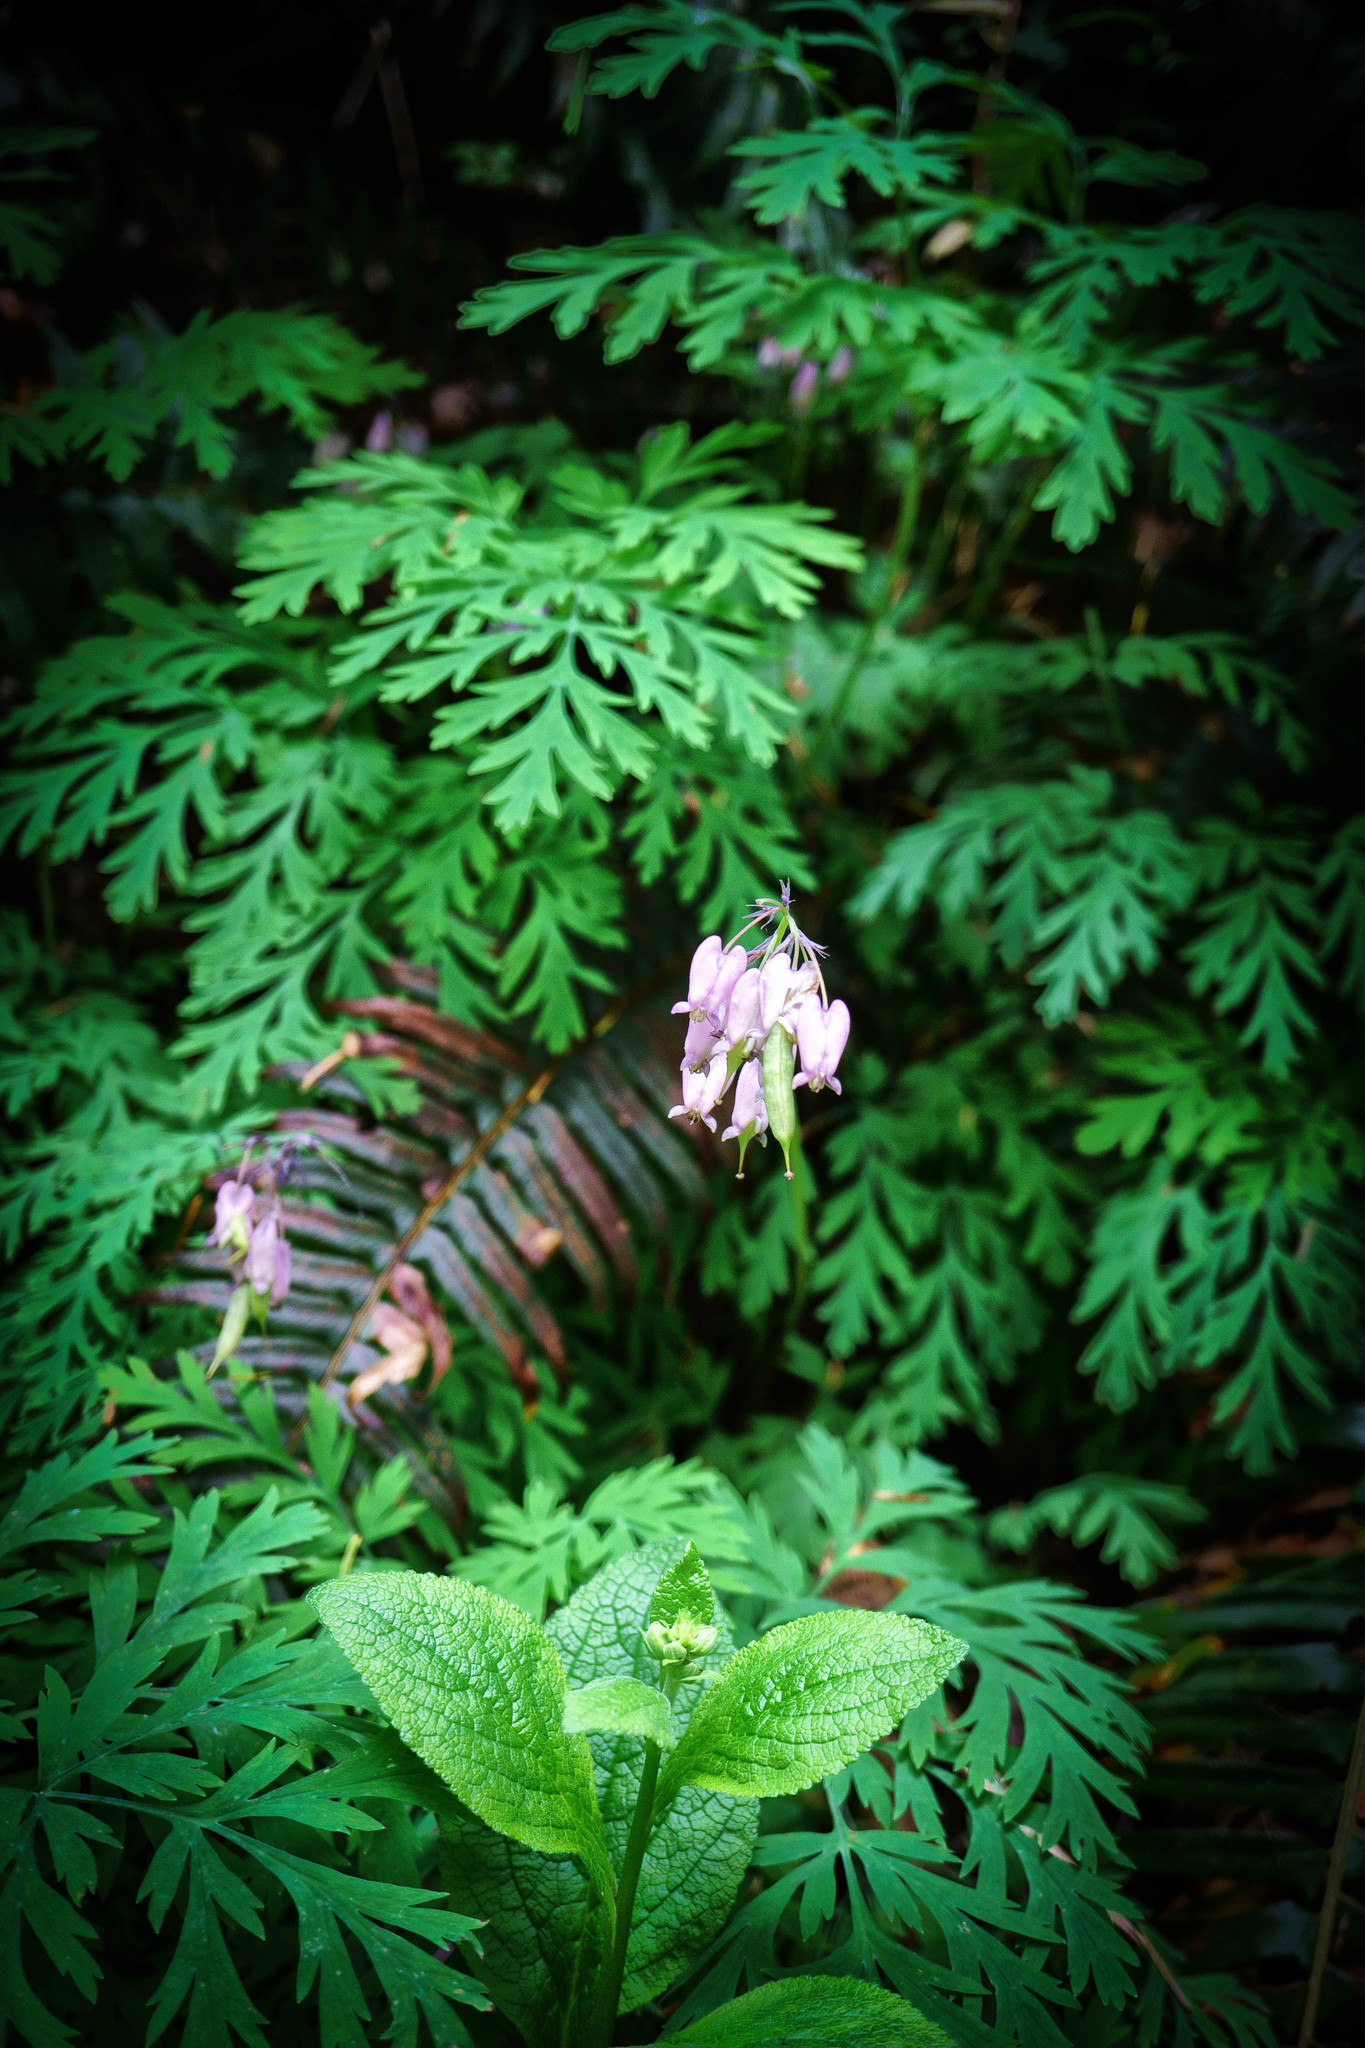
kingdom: Plantae
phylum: Tracheophyta
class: Magnoliopsida
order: Ranunculales
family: Papaveraceae
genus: Dicentra
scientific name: Dicentra formosa
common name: Bleeding-heart
